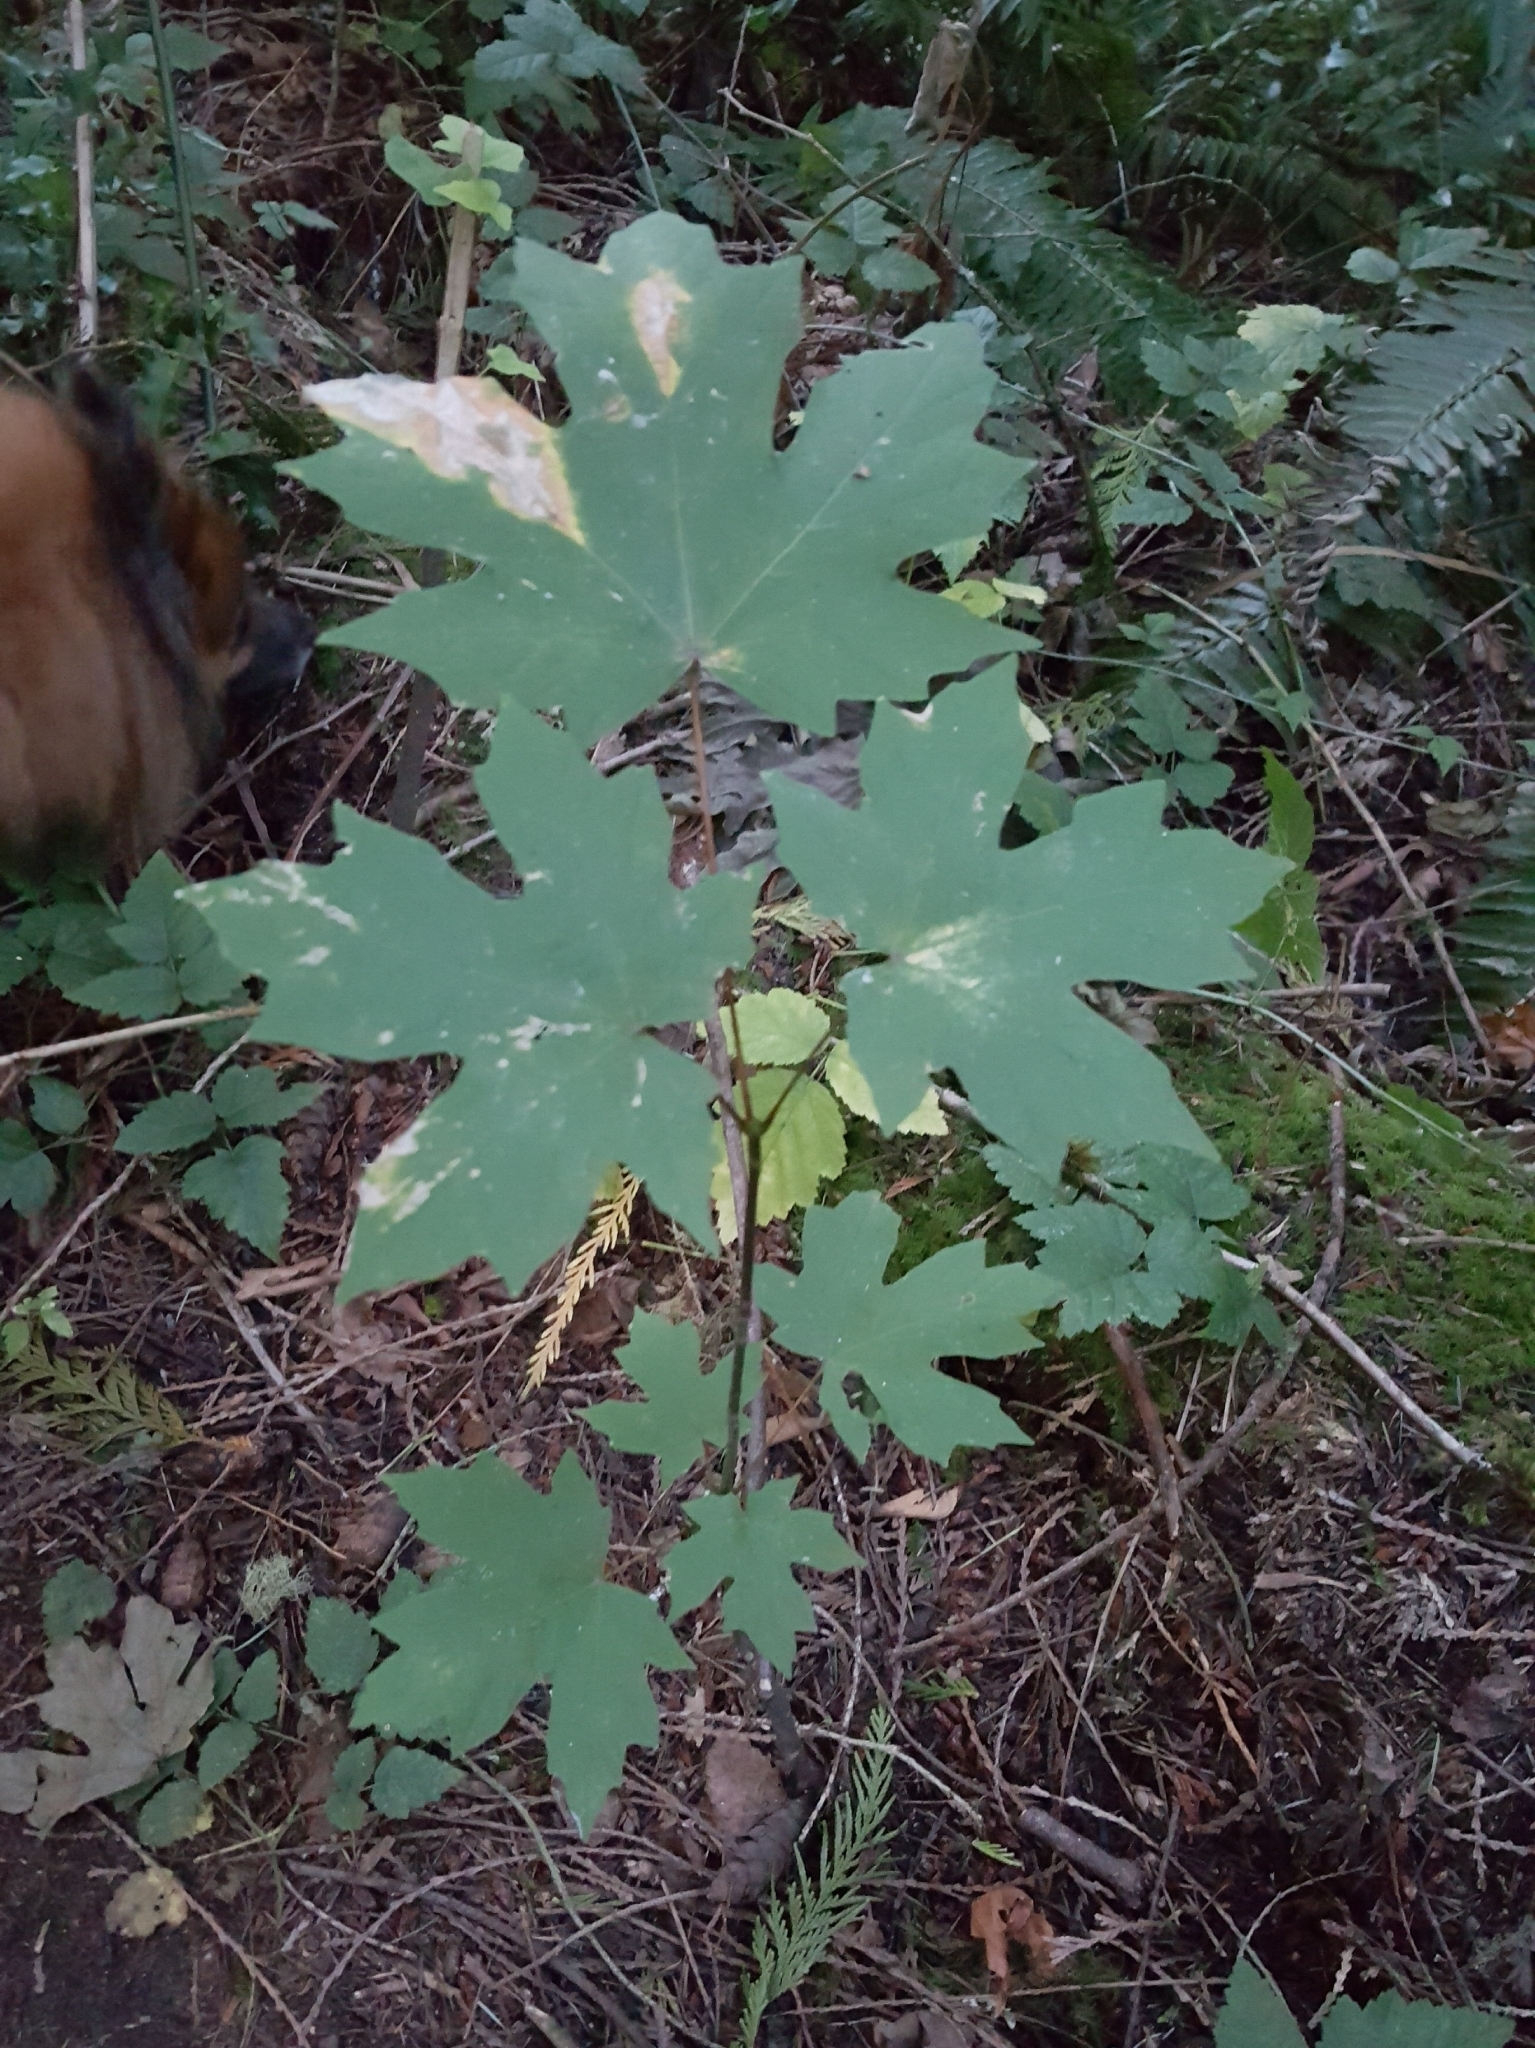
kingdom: Plantae
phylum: Tracheophyta
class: Magnoliopsida
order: Sapindales
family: Sapindaceae
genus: Acer
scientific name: Acer macrophyllum
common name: Oregon maple
